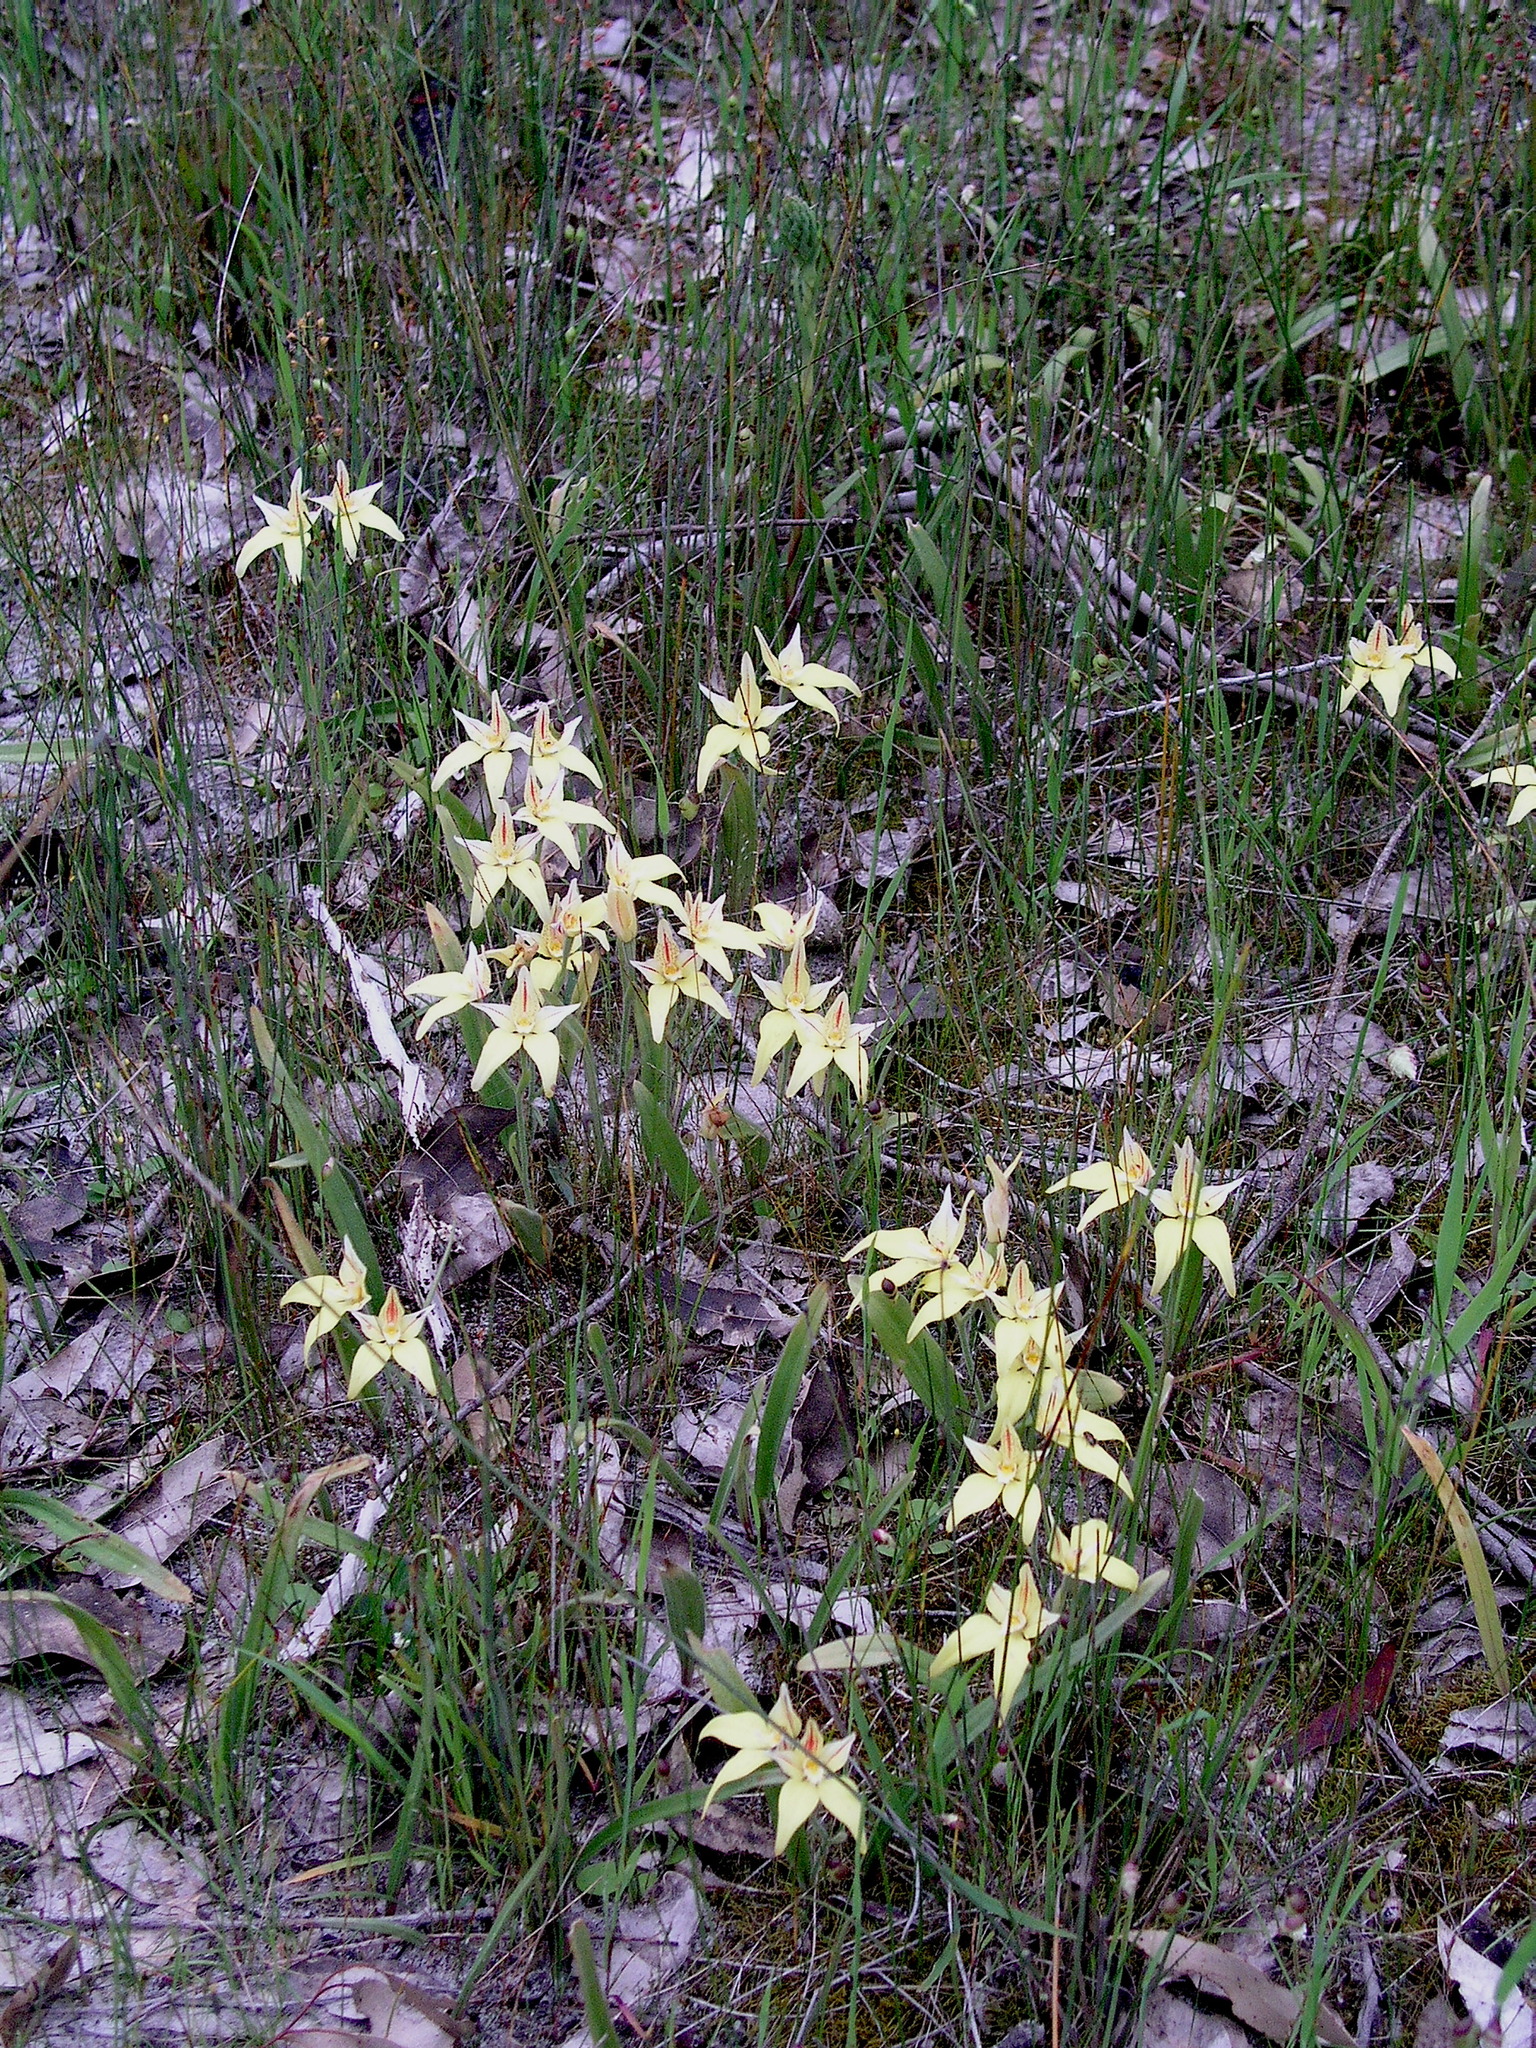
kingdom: Plantae
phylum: Tracheophyta
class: Liliopsida
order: Asparagales
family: Orchidaceae
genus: Caladenia
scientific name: Caladenia flava
